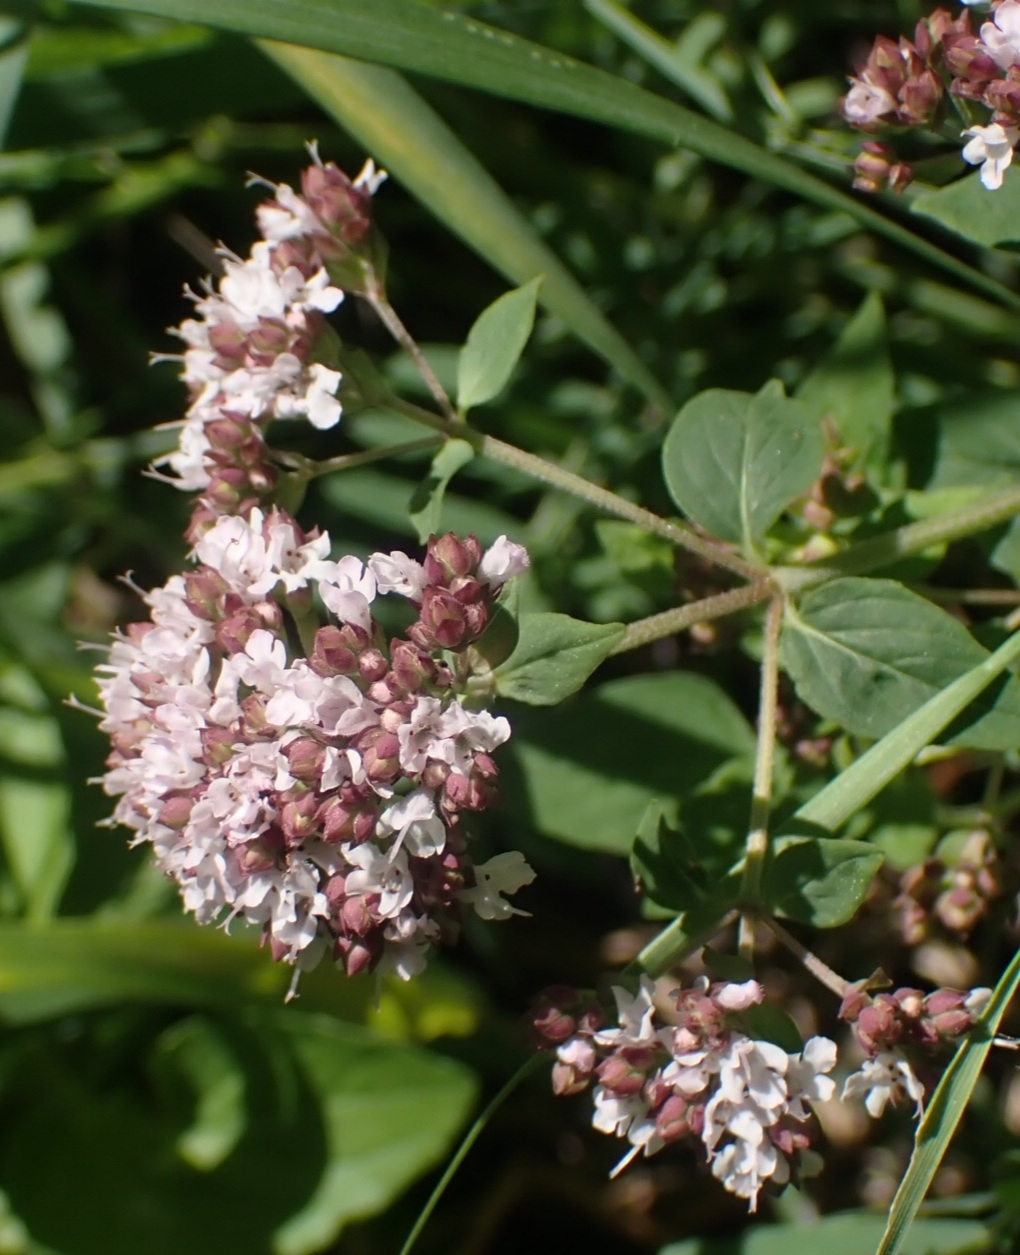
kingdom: Plantae
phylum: Tracheophyta
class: Magnoliopsida
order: Lamiales
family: Lamiaceae
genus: Origanum
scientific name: Origanum vulgare
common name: Wild marjoram
